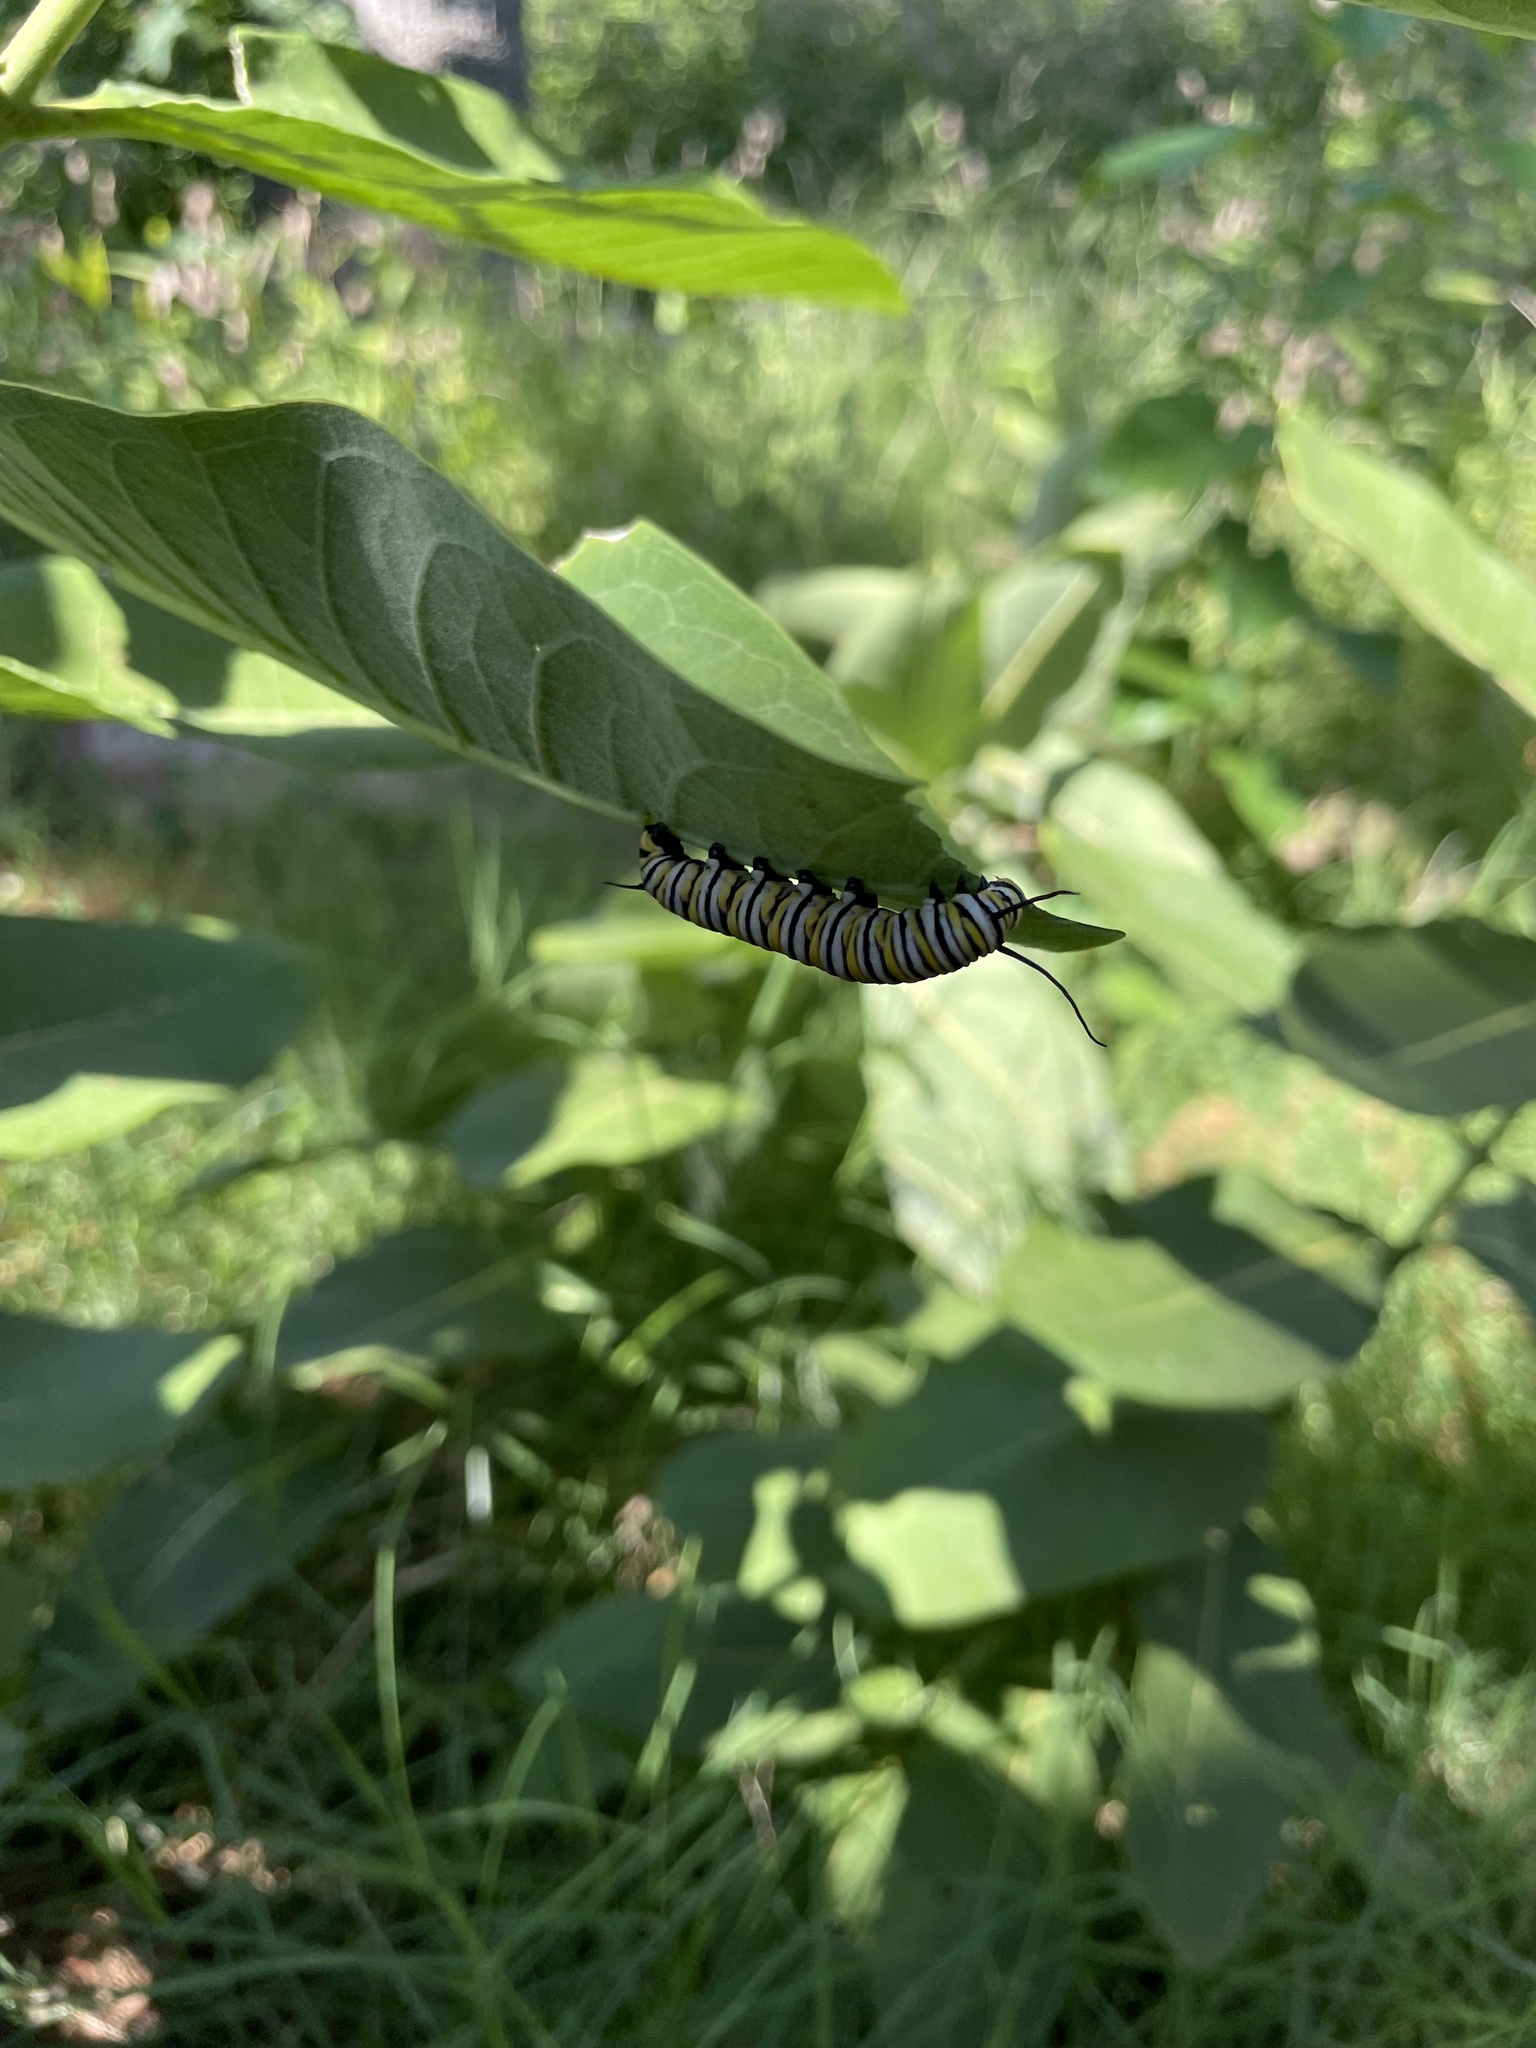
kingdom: Animalia
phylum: Arthropoda
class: Insecta
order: Lepidoptera
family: Nymphalidae
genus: Danaus
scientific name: Danaus plexippus
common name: Monarch
